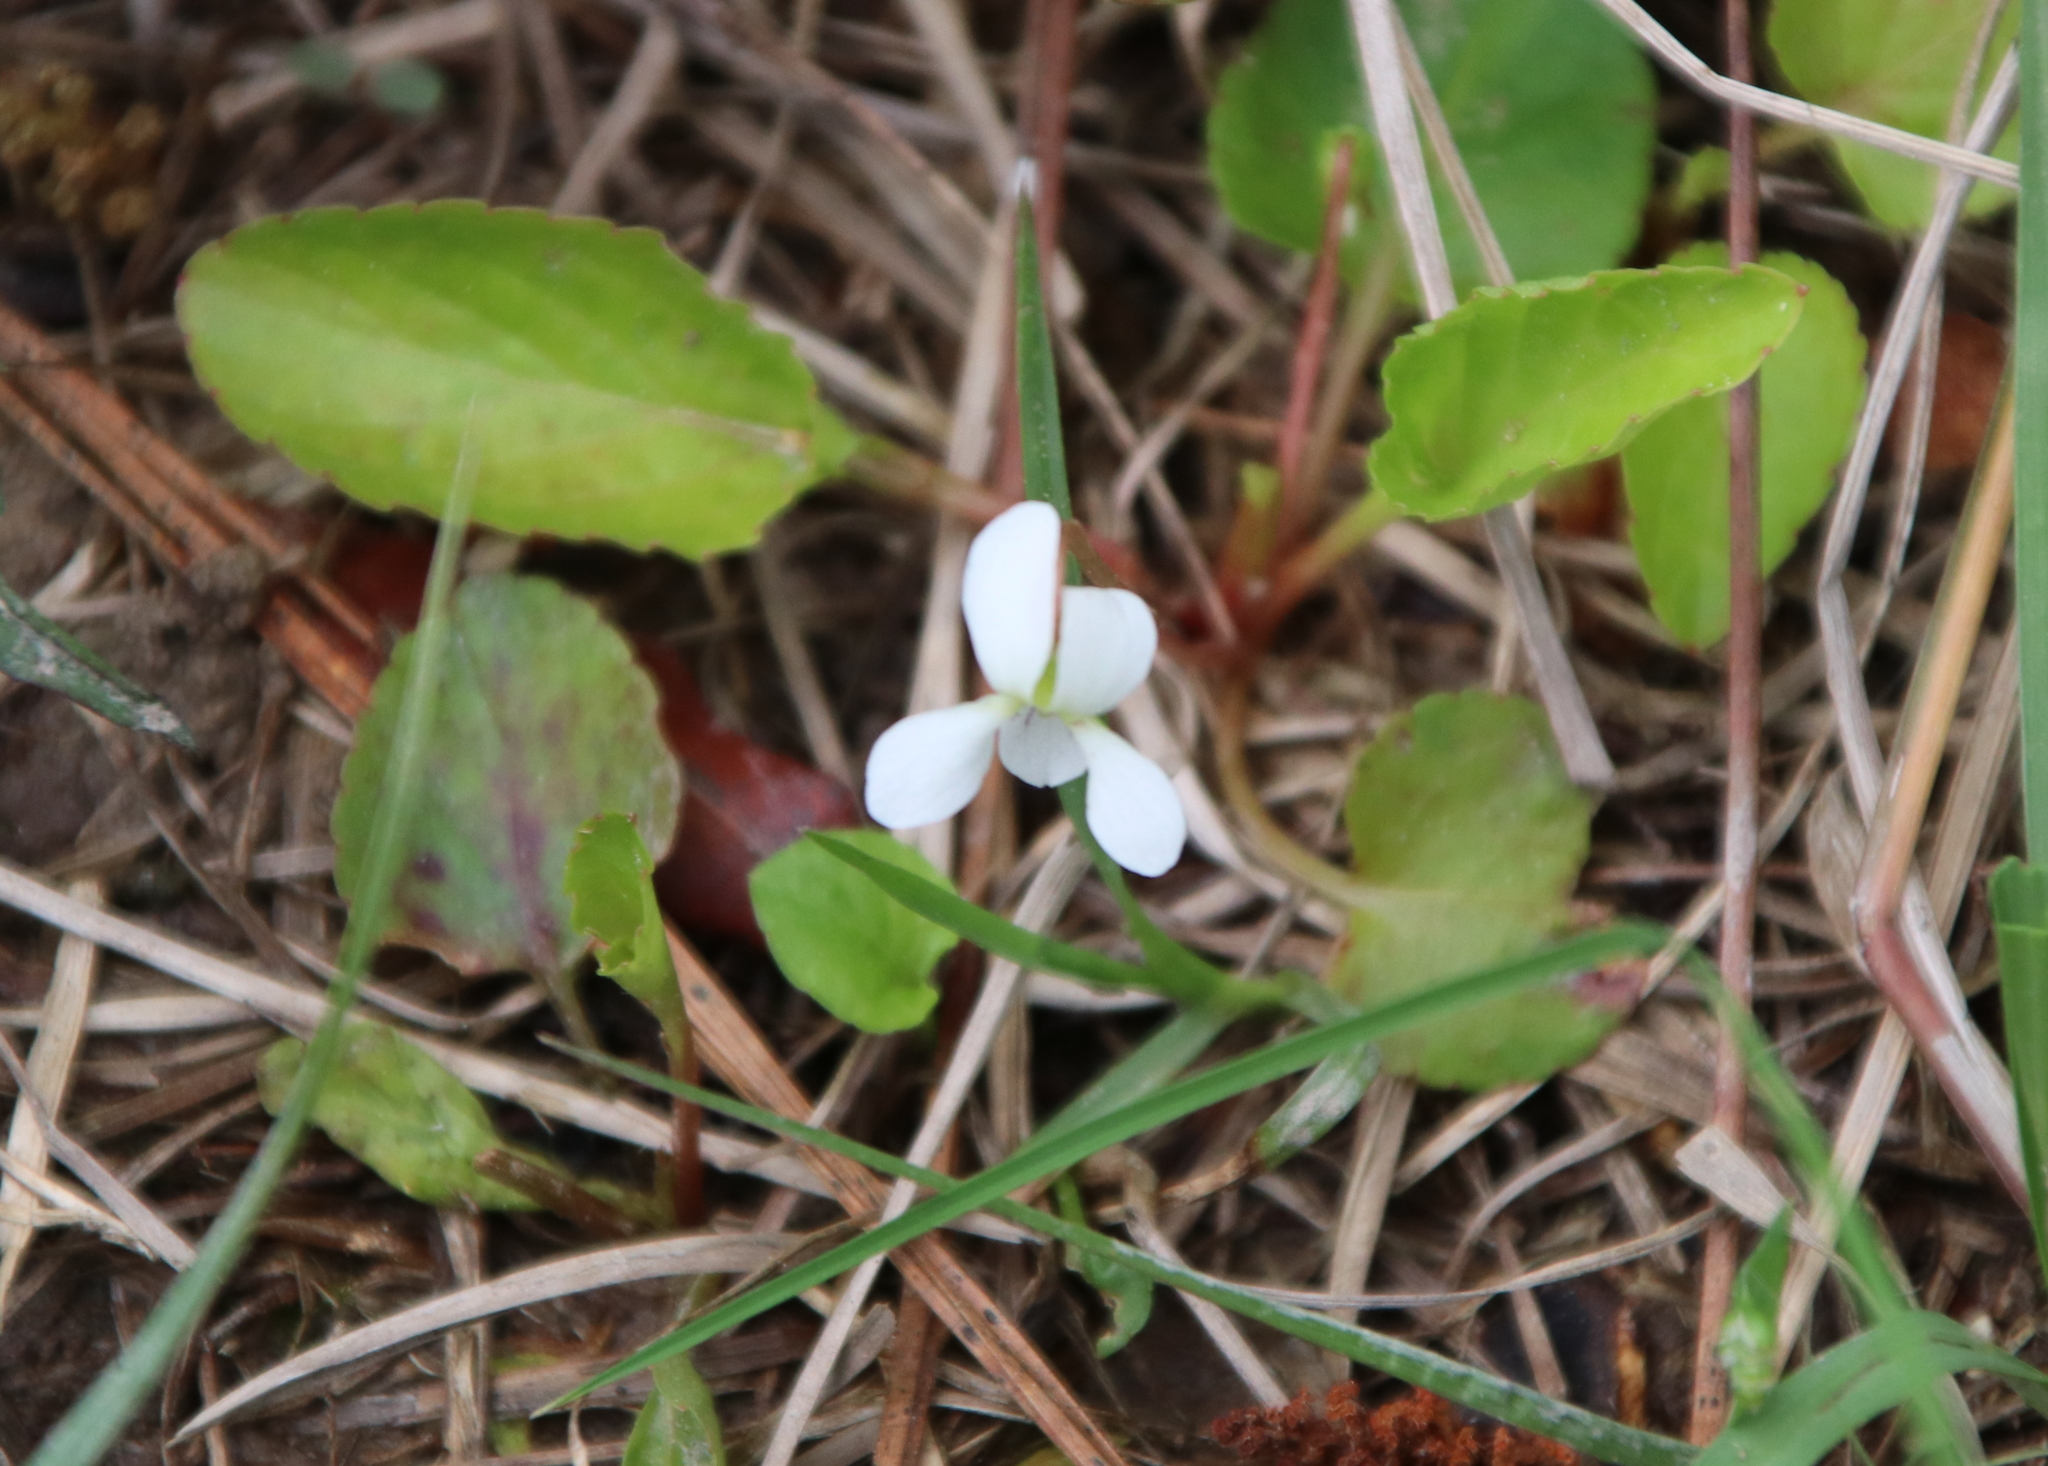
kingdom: Plantae
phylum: Tracheophyta
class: Magnoliopsida
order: Malpighiales
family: Violaceae
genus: Viola
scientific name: Viola primulifolia
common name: Primrose-leaf violet
